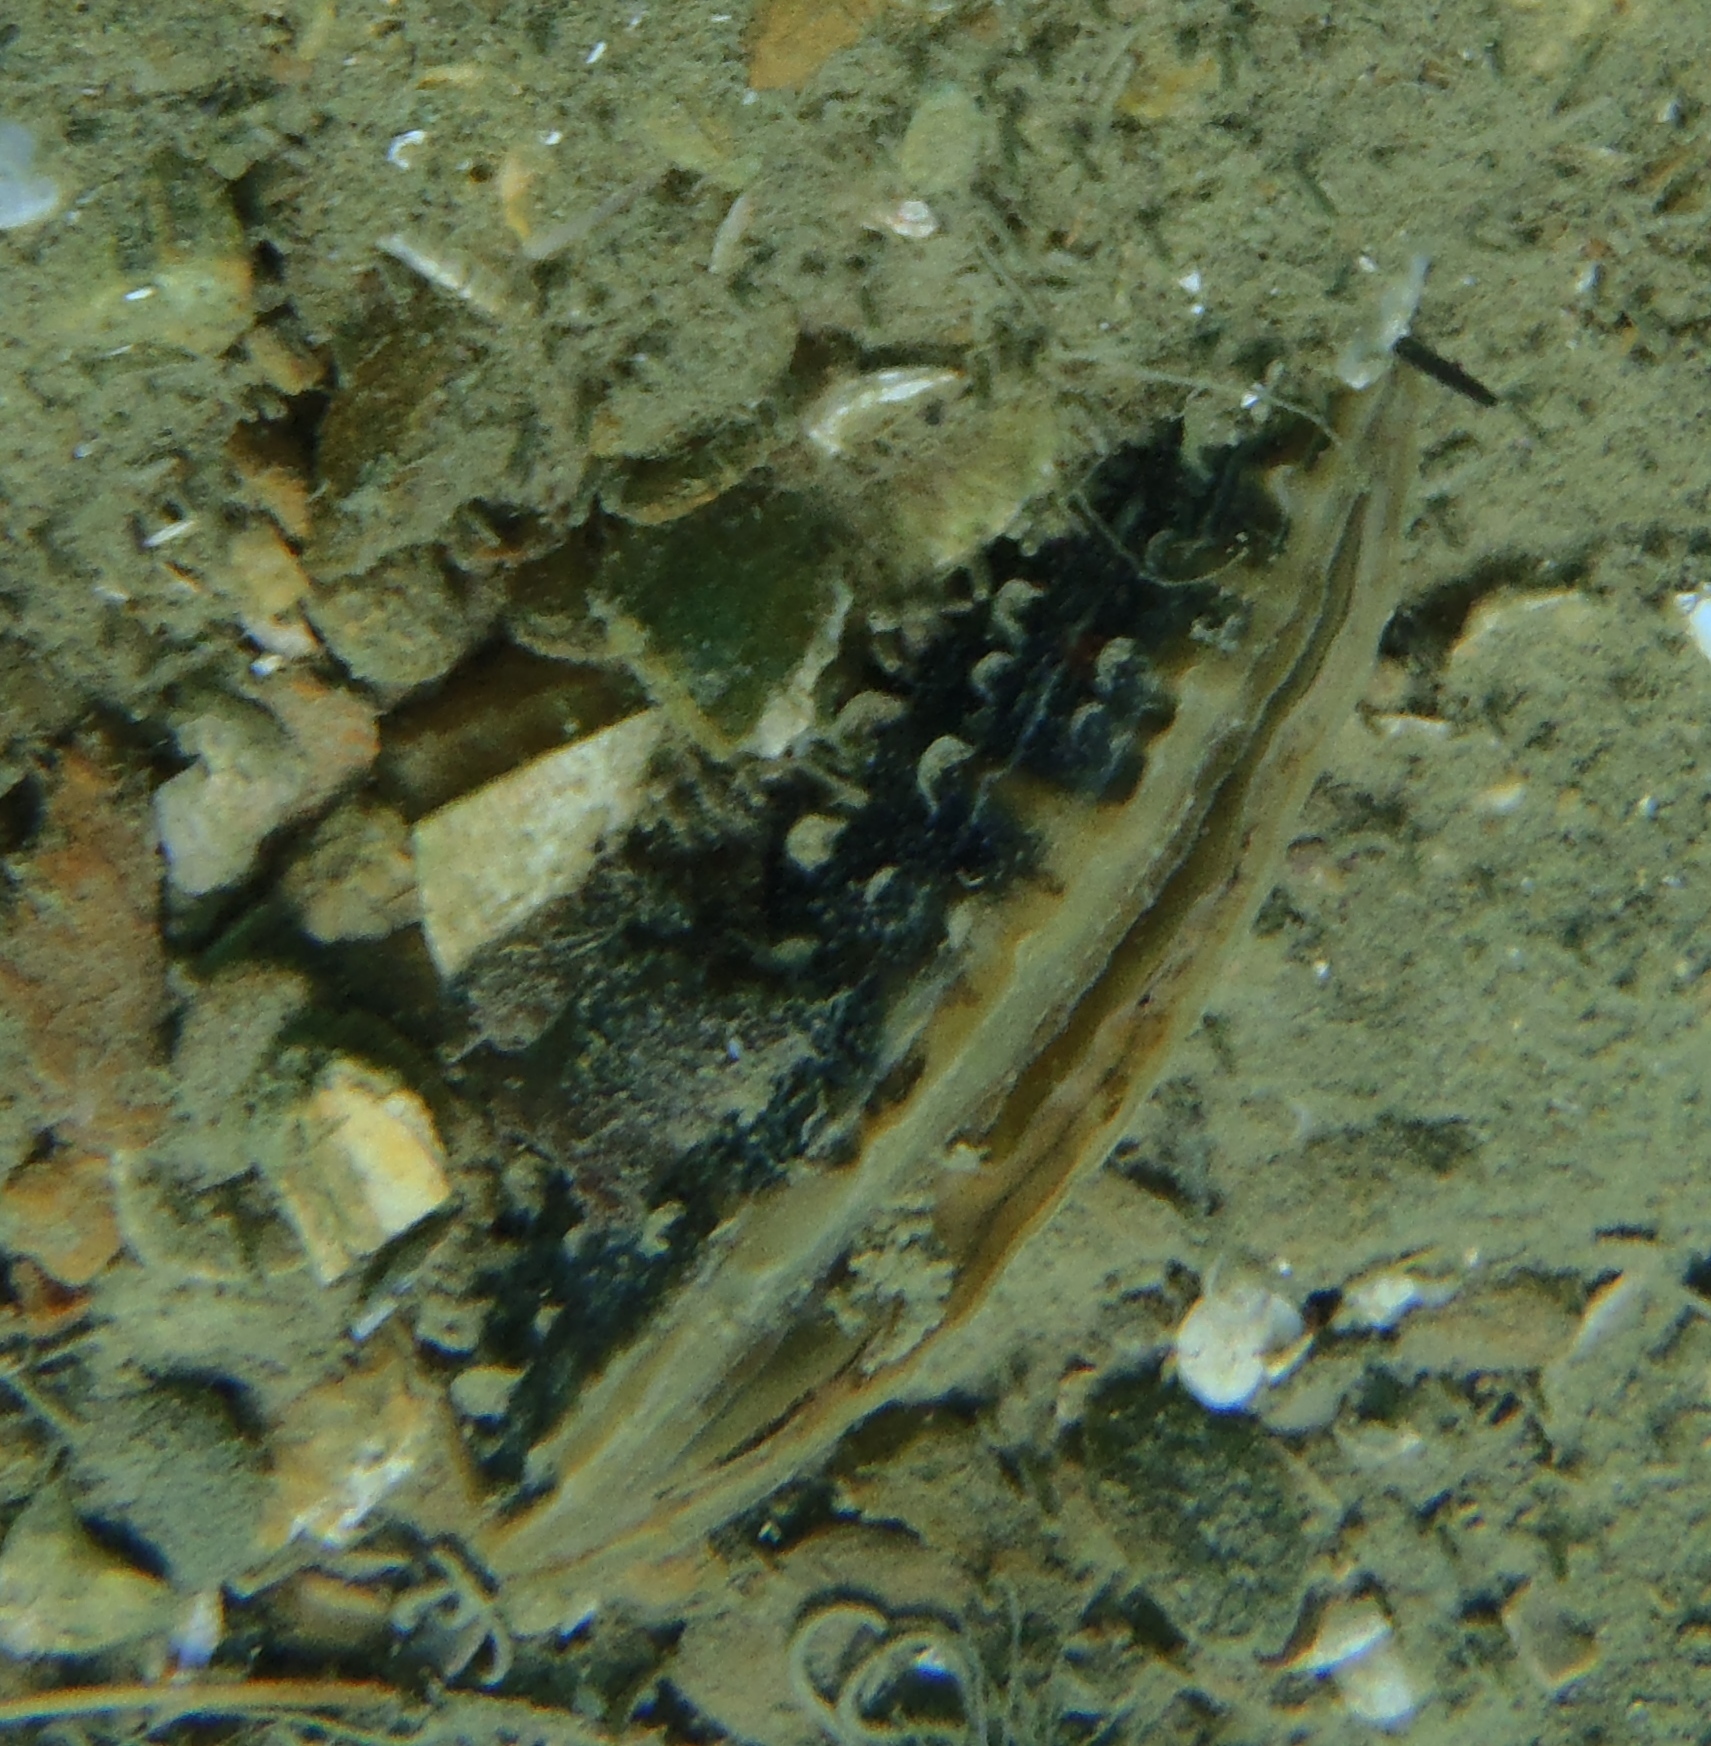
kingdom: Animalia
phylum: Mollusca
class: Bivalvia
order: Ostreida
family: Pinnidae
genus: Atrina
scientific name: Atrina zelandica
